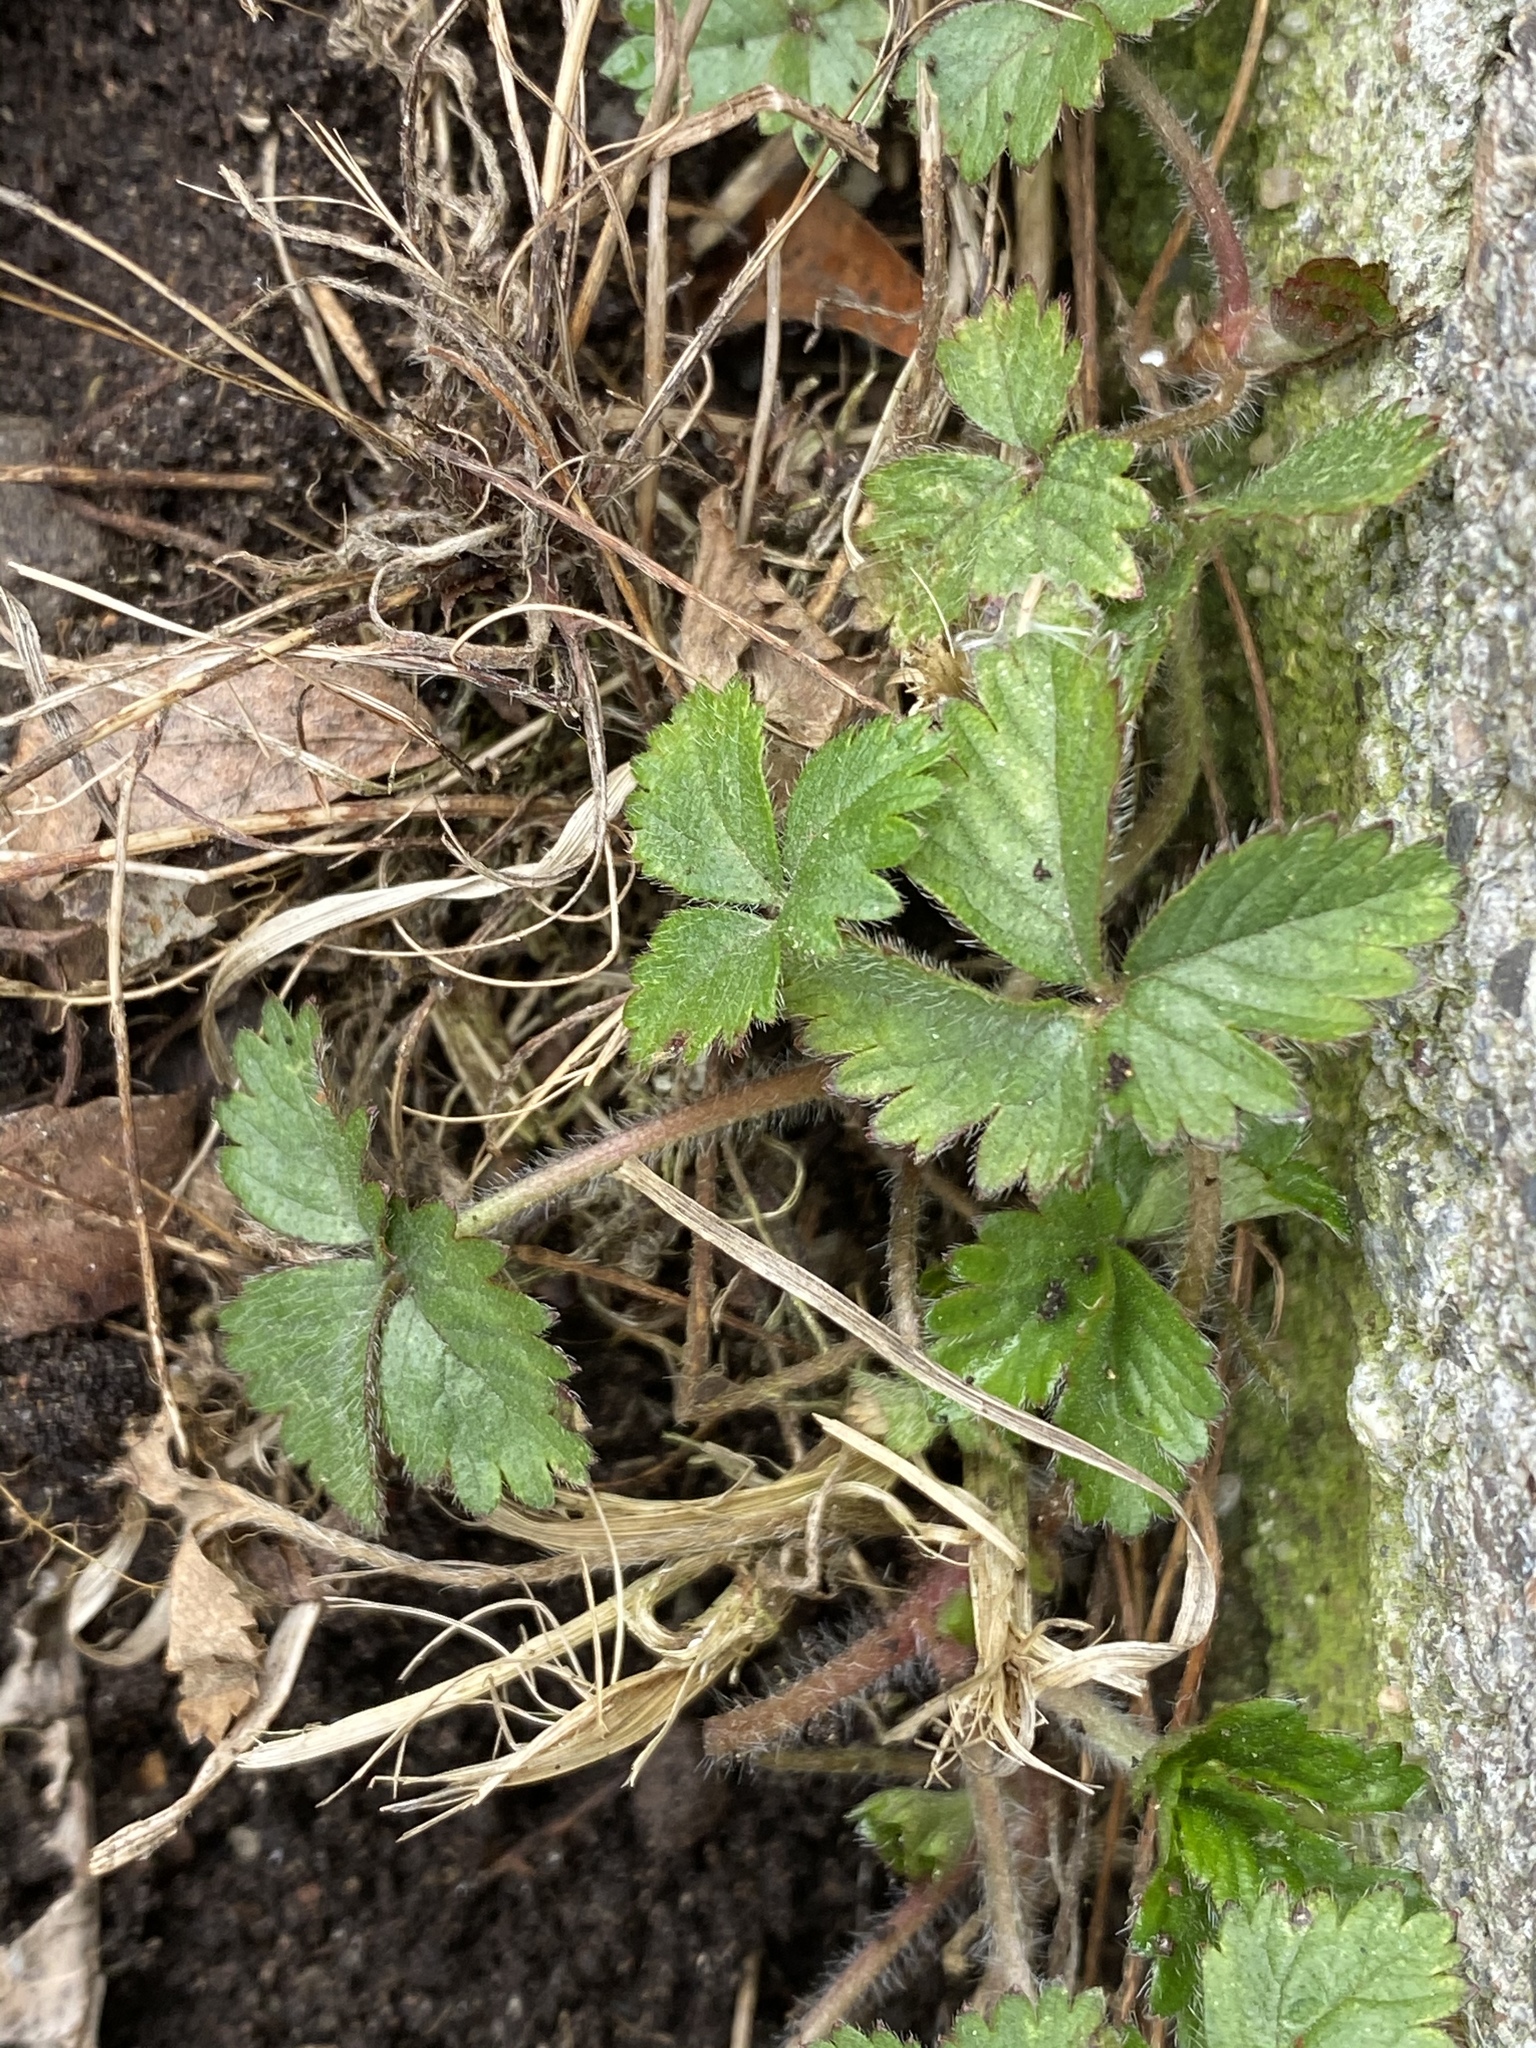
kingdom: Plantae
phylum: Tracheophyta
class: Magnoliopsida
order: Rosales
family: Rosaceae
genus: Potentilla
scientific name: Potentilla indica
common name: Yellow-flowered strawberry
